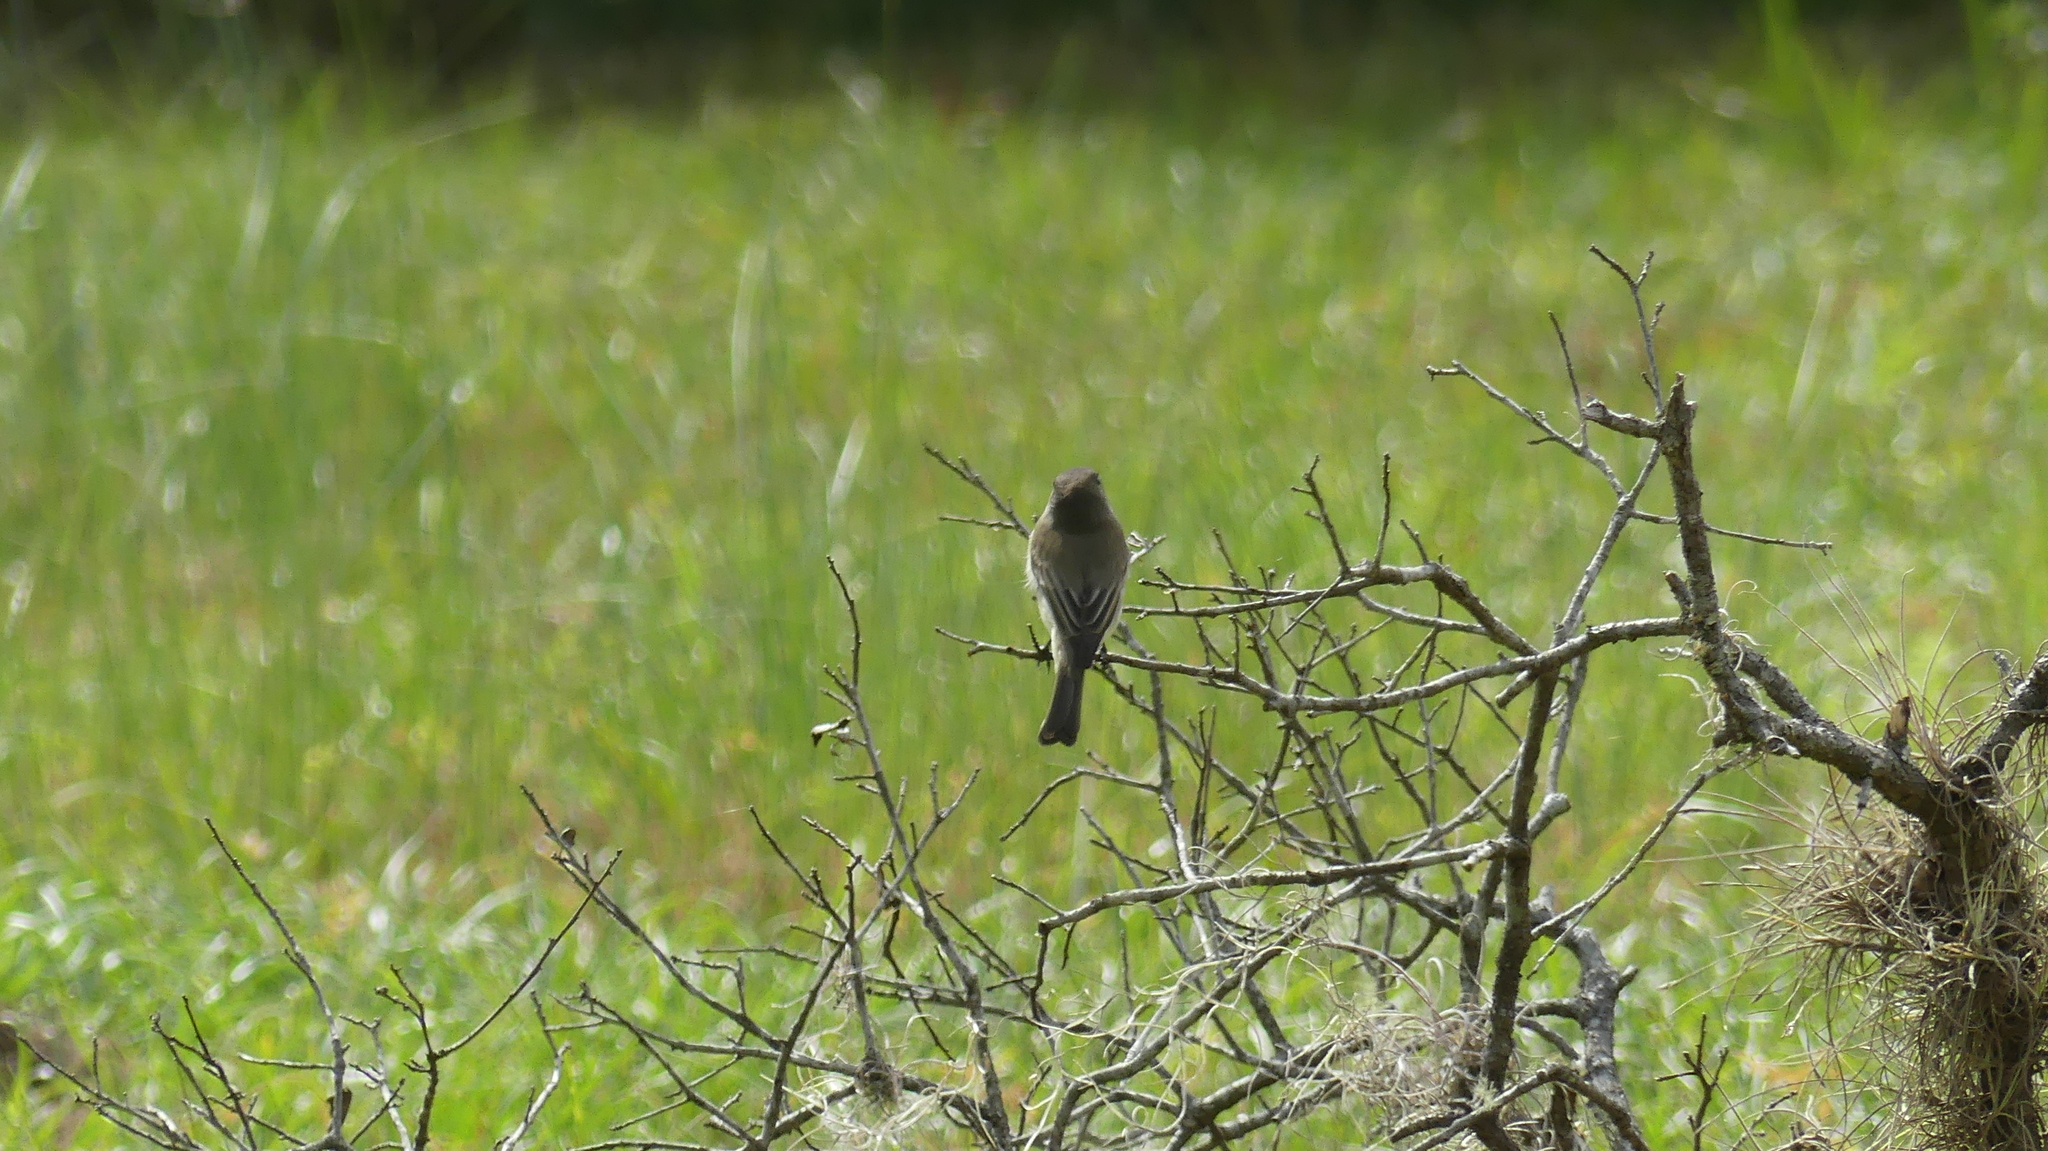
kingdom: Animalia
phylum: Chordata
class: Aves
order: Passeriformes
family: Tyrannidae
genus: Sayornis
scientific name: Sayornis phoebe
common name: Eastern phoebe
